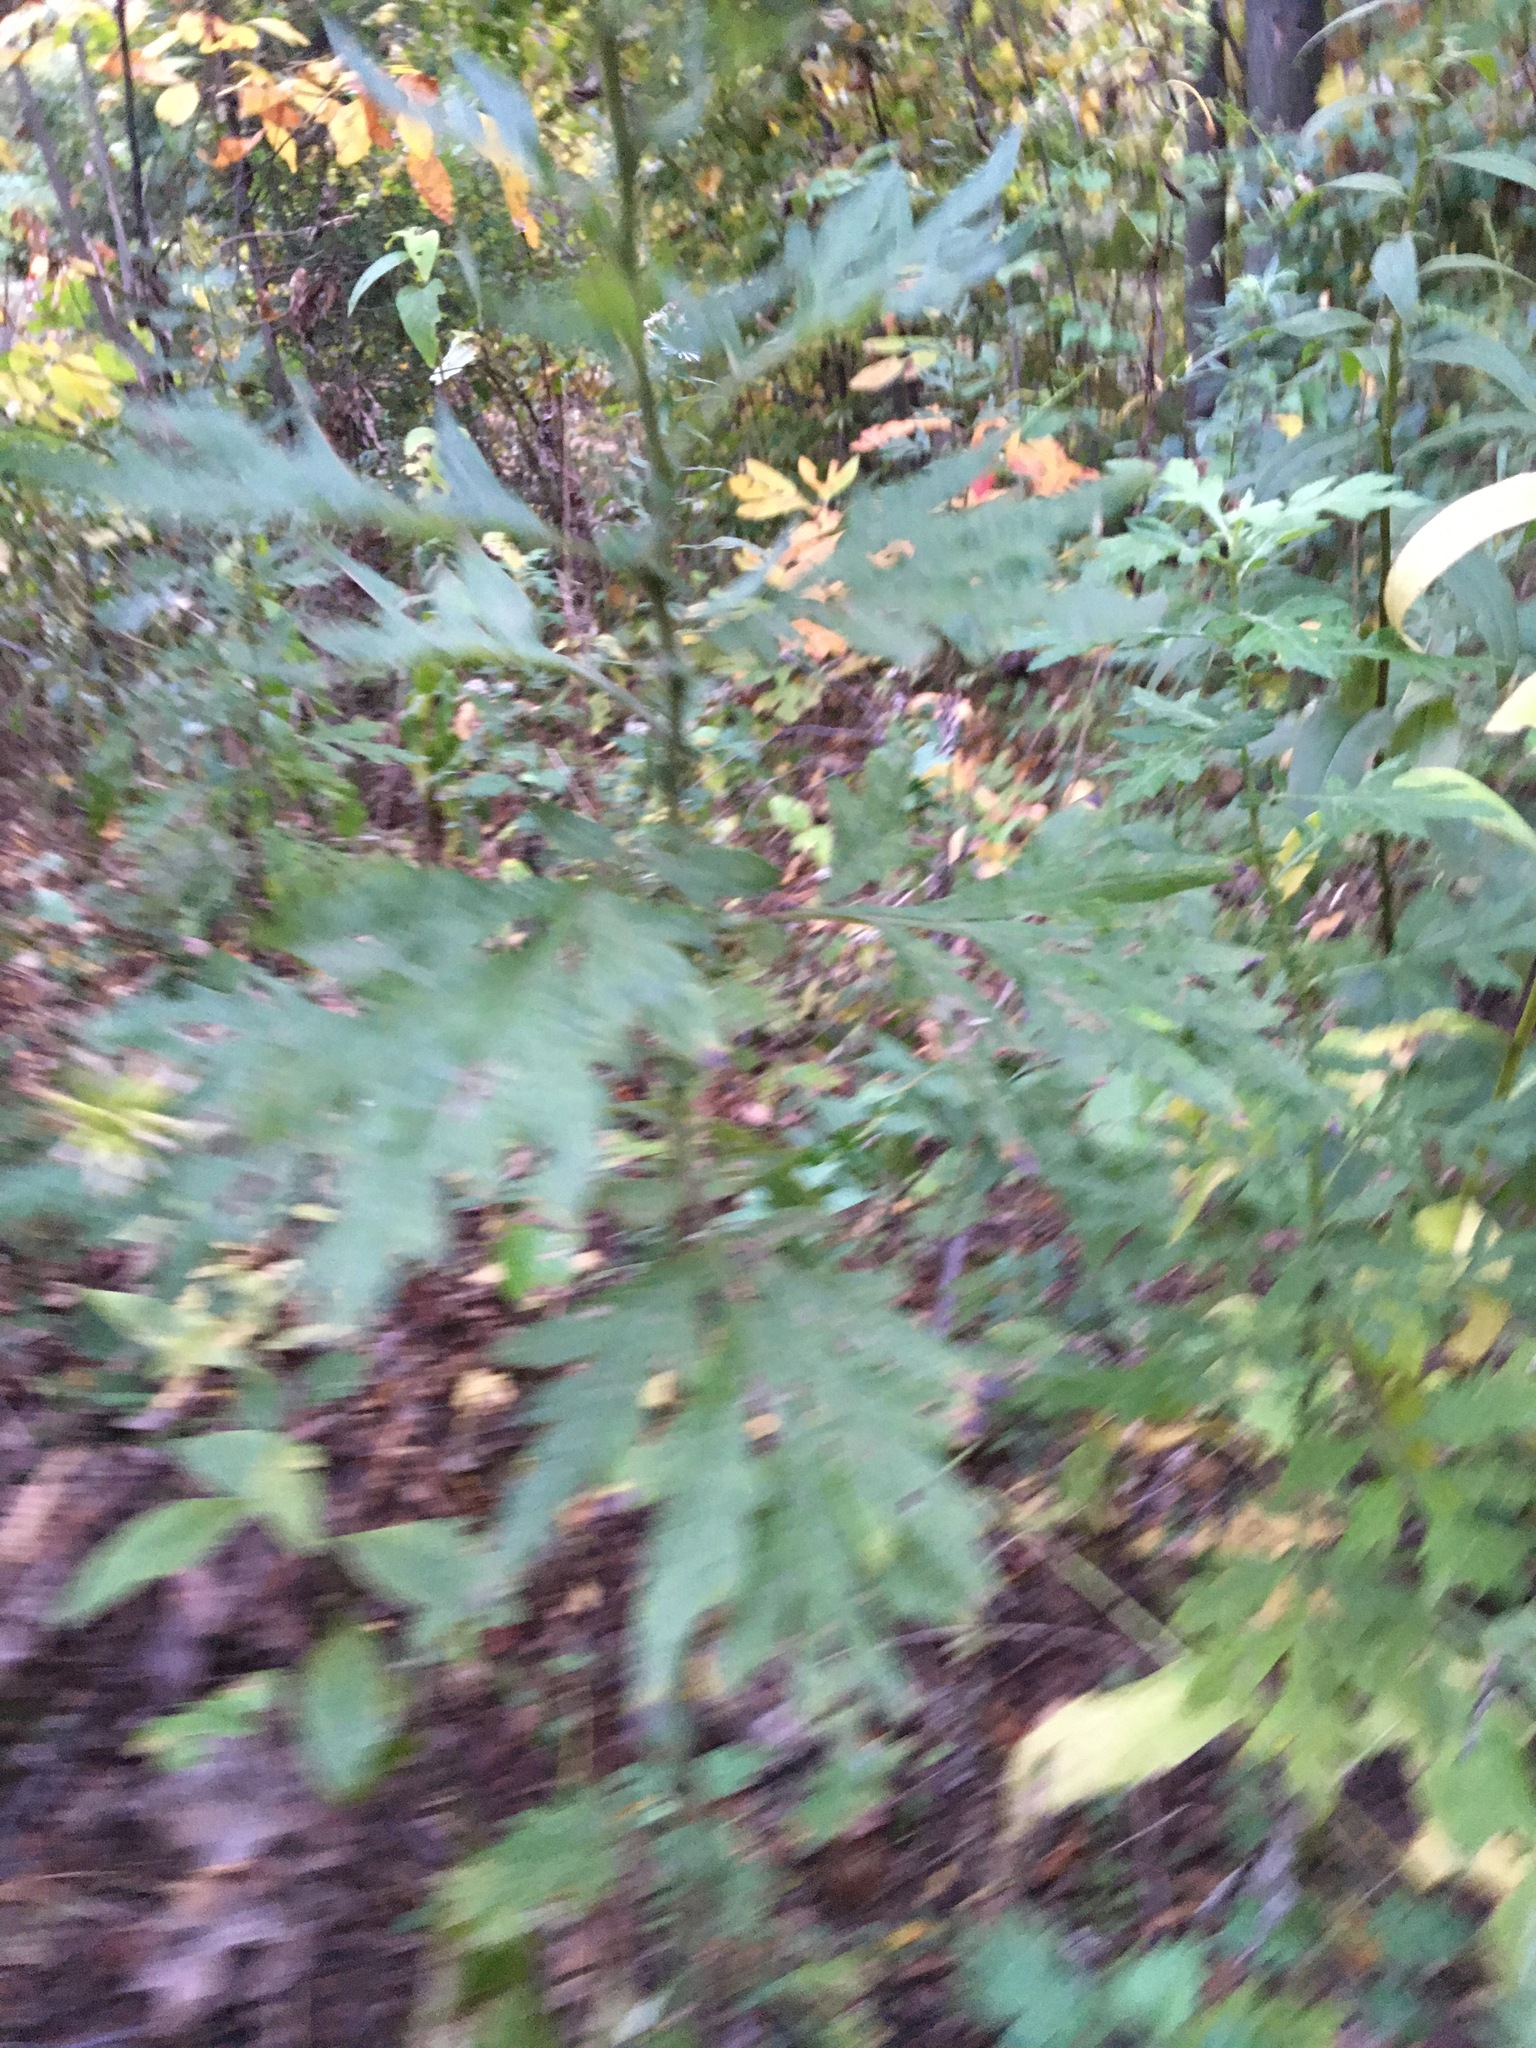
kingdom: Plantae
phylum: Tracheophyta
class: Magnoliopsida
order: Asterales
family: Asteraceae
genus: Artemisia
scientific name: Artemisia vulgaris
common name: Mugwort
